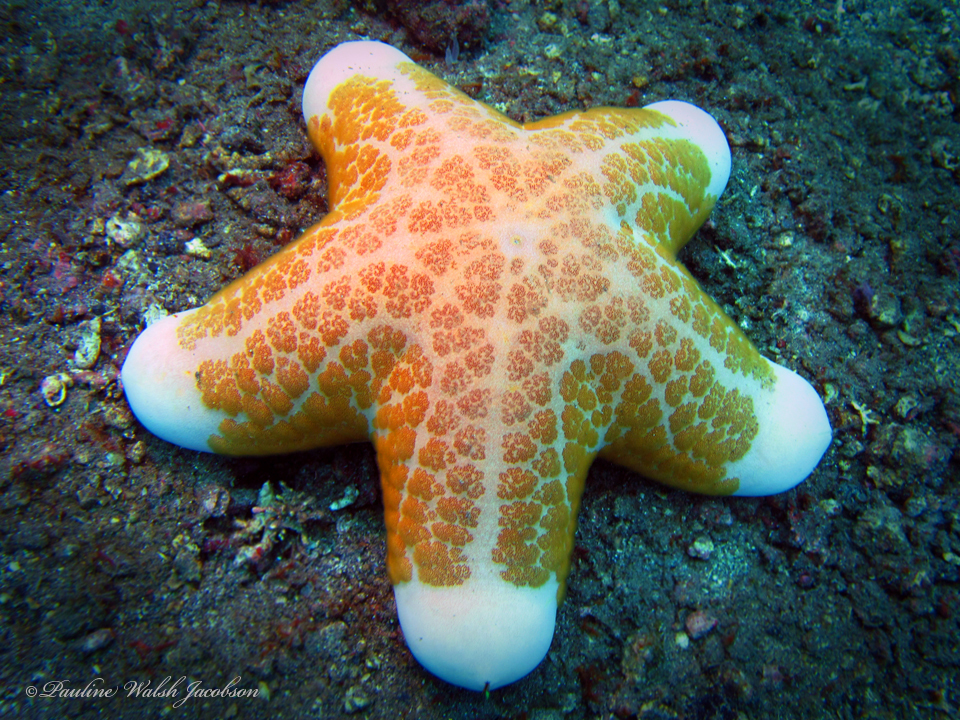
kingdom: Animalia
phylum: Echinodermata
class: Asteroidea
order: Valvatida
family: Oreasteridae
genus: Choriaster
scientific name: Choriaster granulatus
